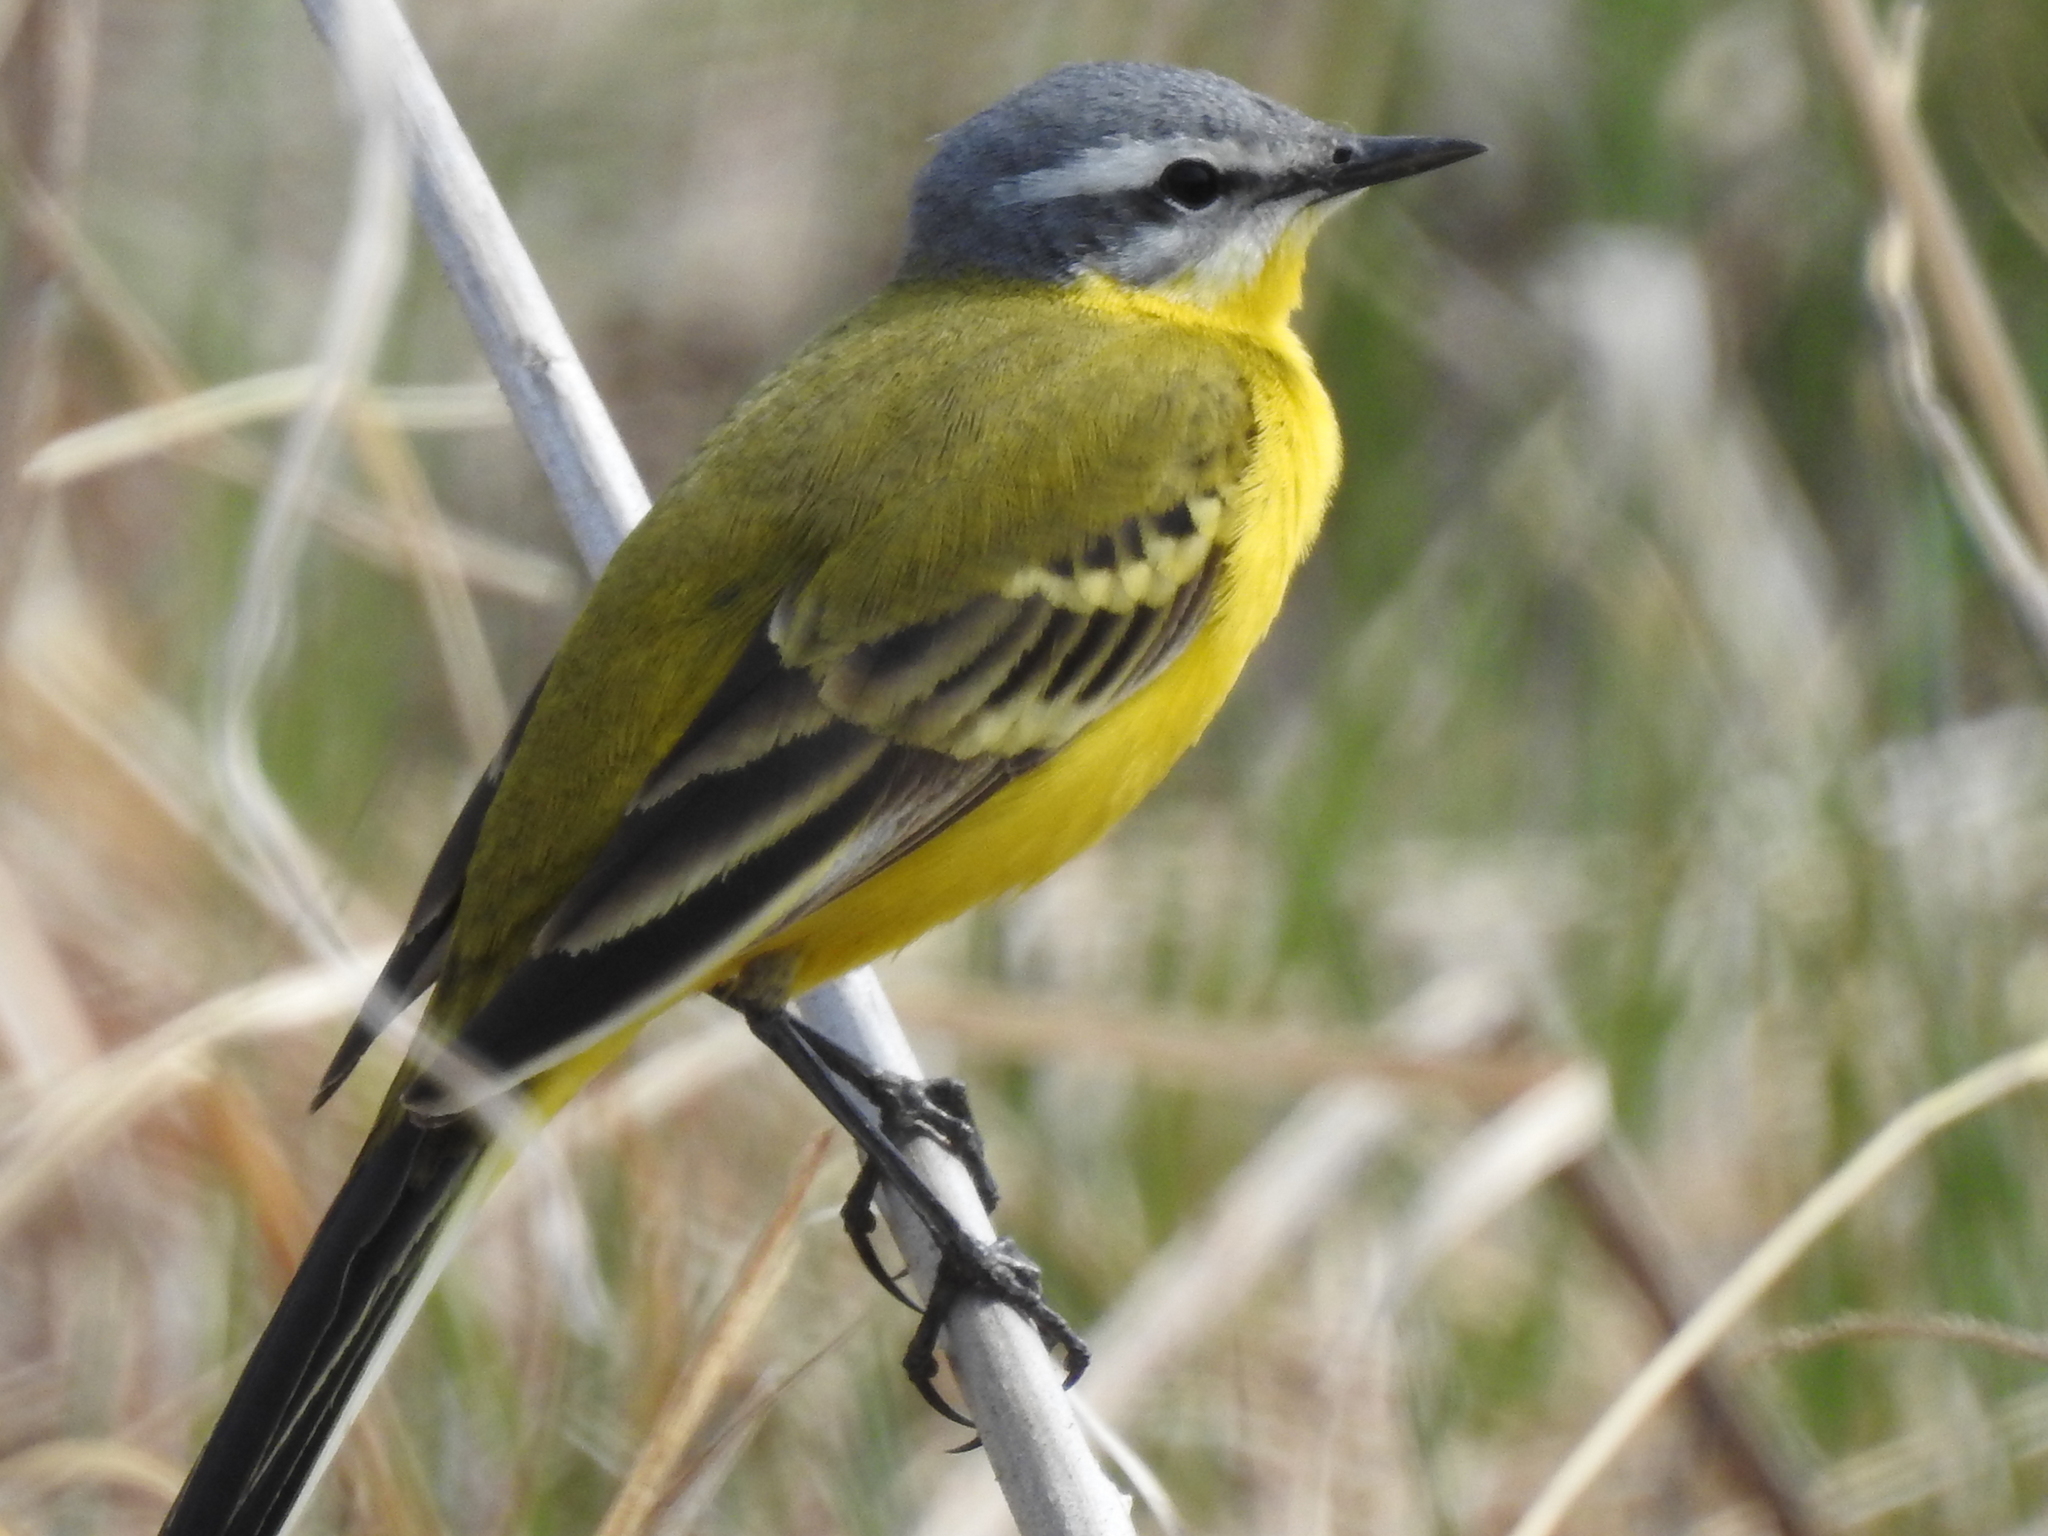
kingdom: Animalia
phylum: Chordata
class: Aves
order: Passeriformes
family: Motacillidae
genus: Motacilla
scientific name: Motacilla flava
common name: Western yellow wagtail
